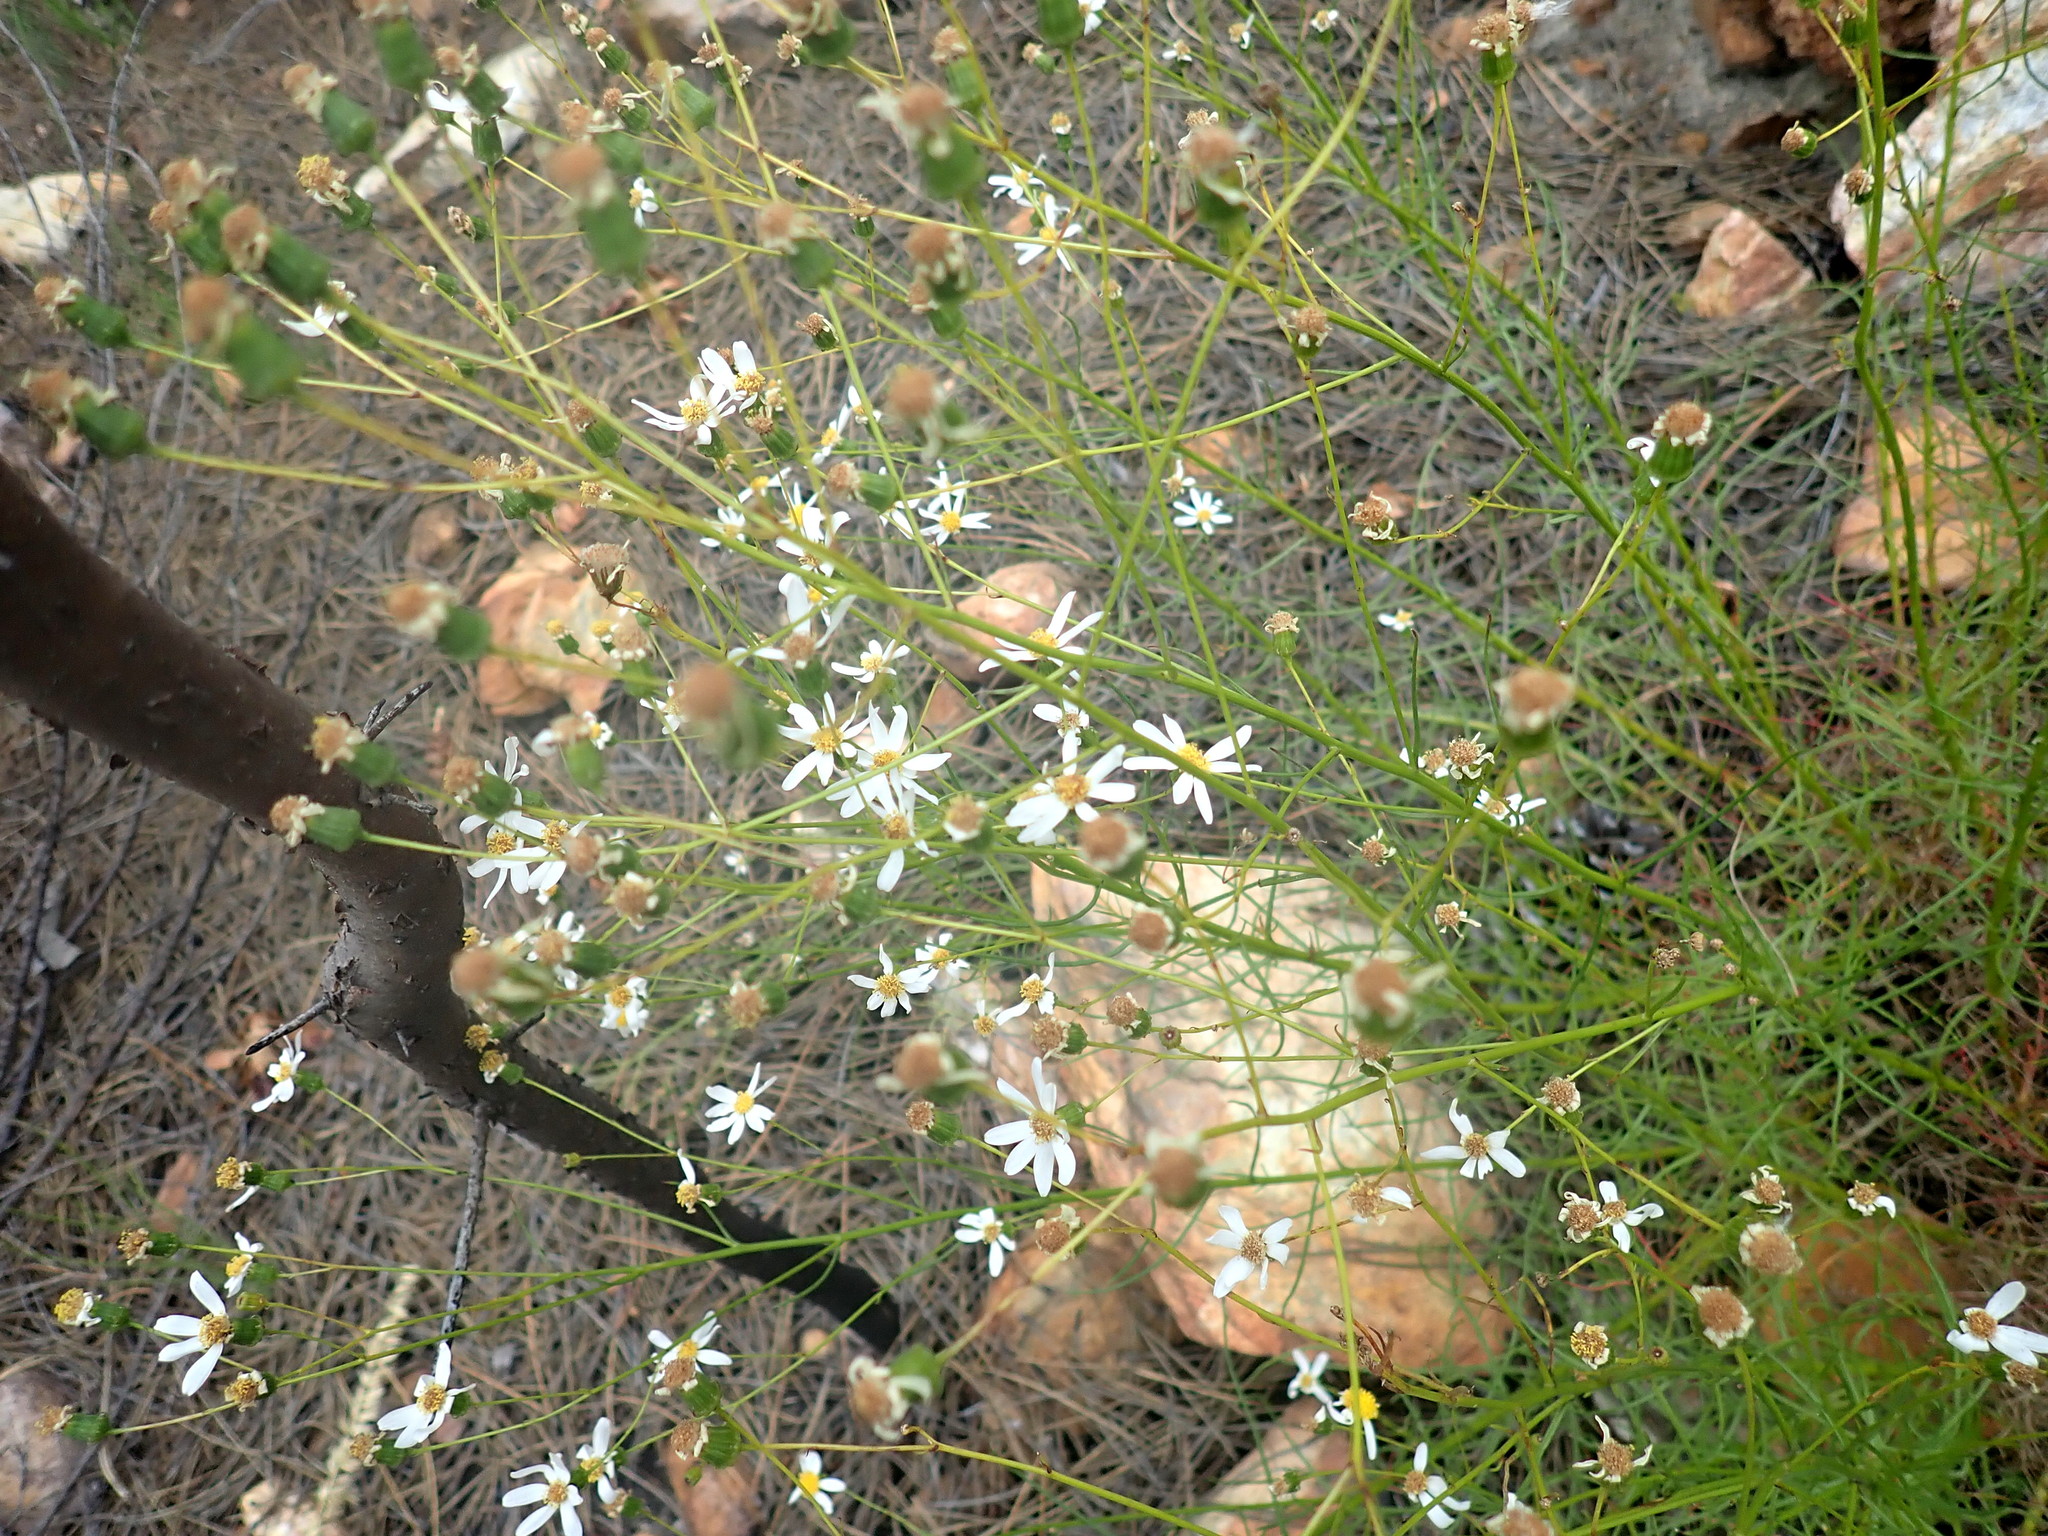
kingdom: Plantae
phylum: Tracheophyta
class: Magnoliopsida
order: Asterales
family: Asteraceae
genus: Senecio
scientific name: Senecio umbellatus
